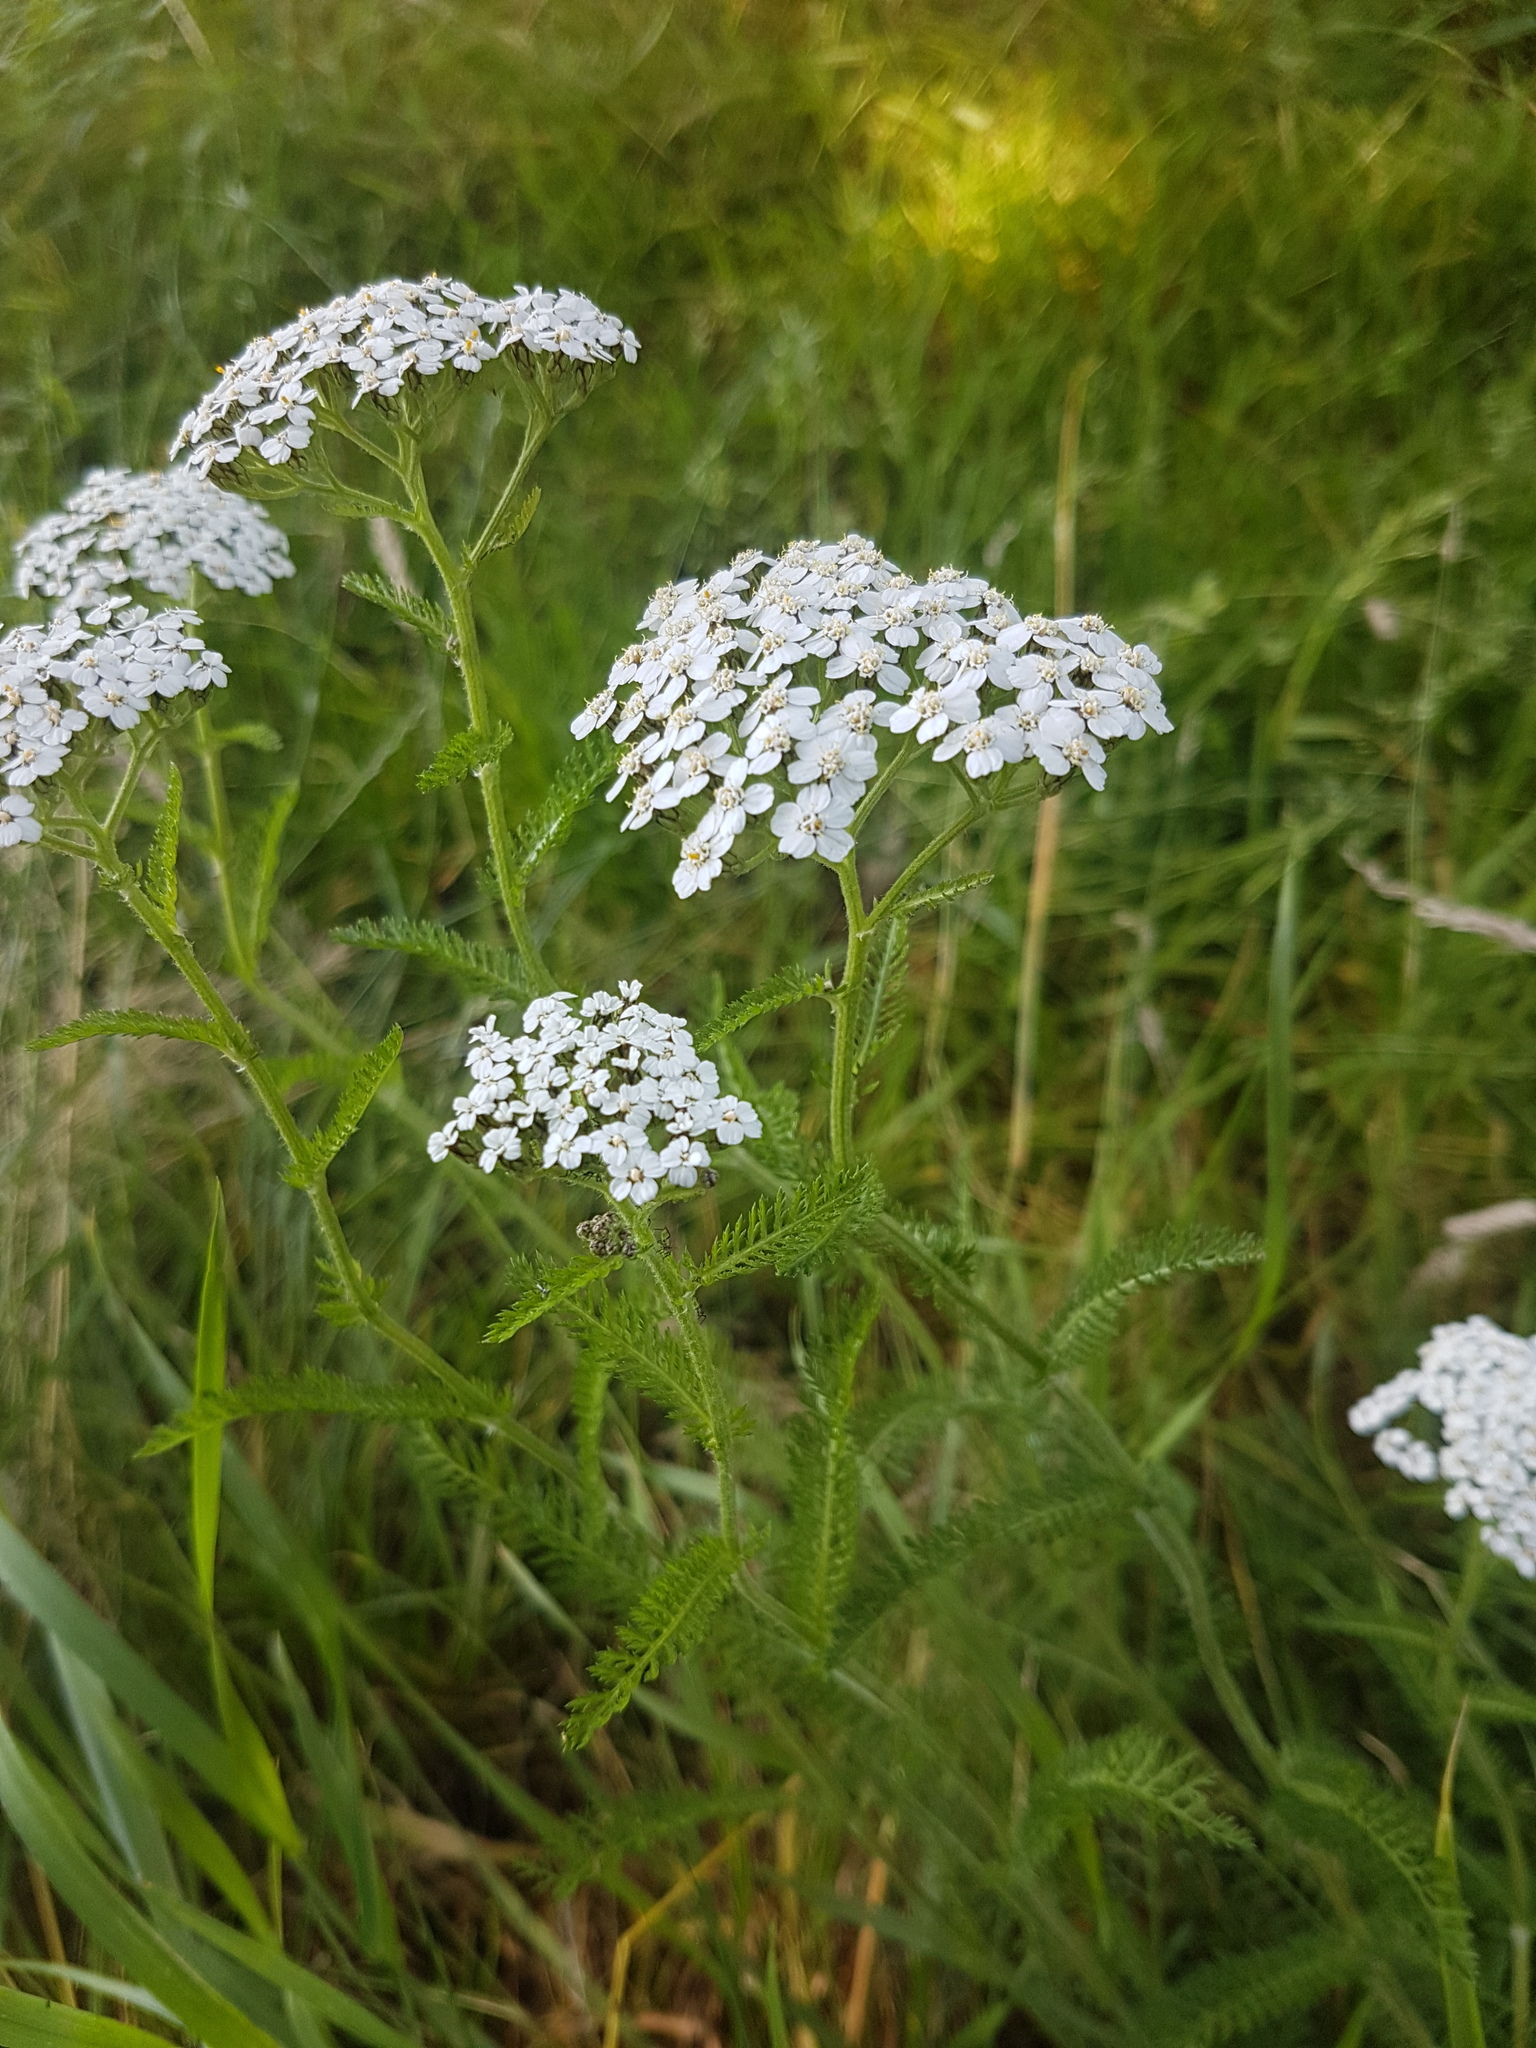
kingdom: Plantae
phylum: Tracheophyta
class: Magnoliopsida
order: Asterales
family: Asteraceae
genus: Achillea
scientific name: Achillea millefolium
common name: Yarrow
